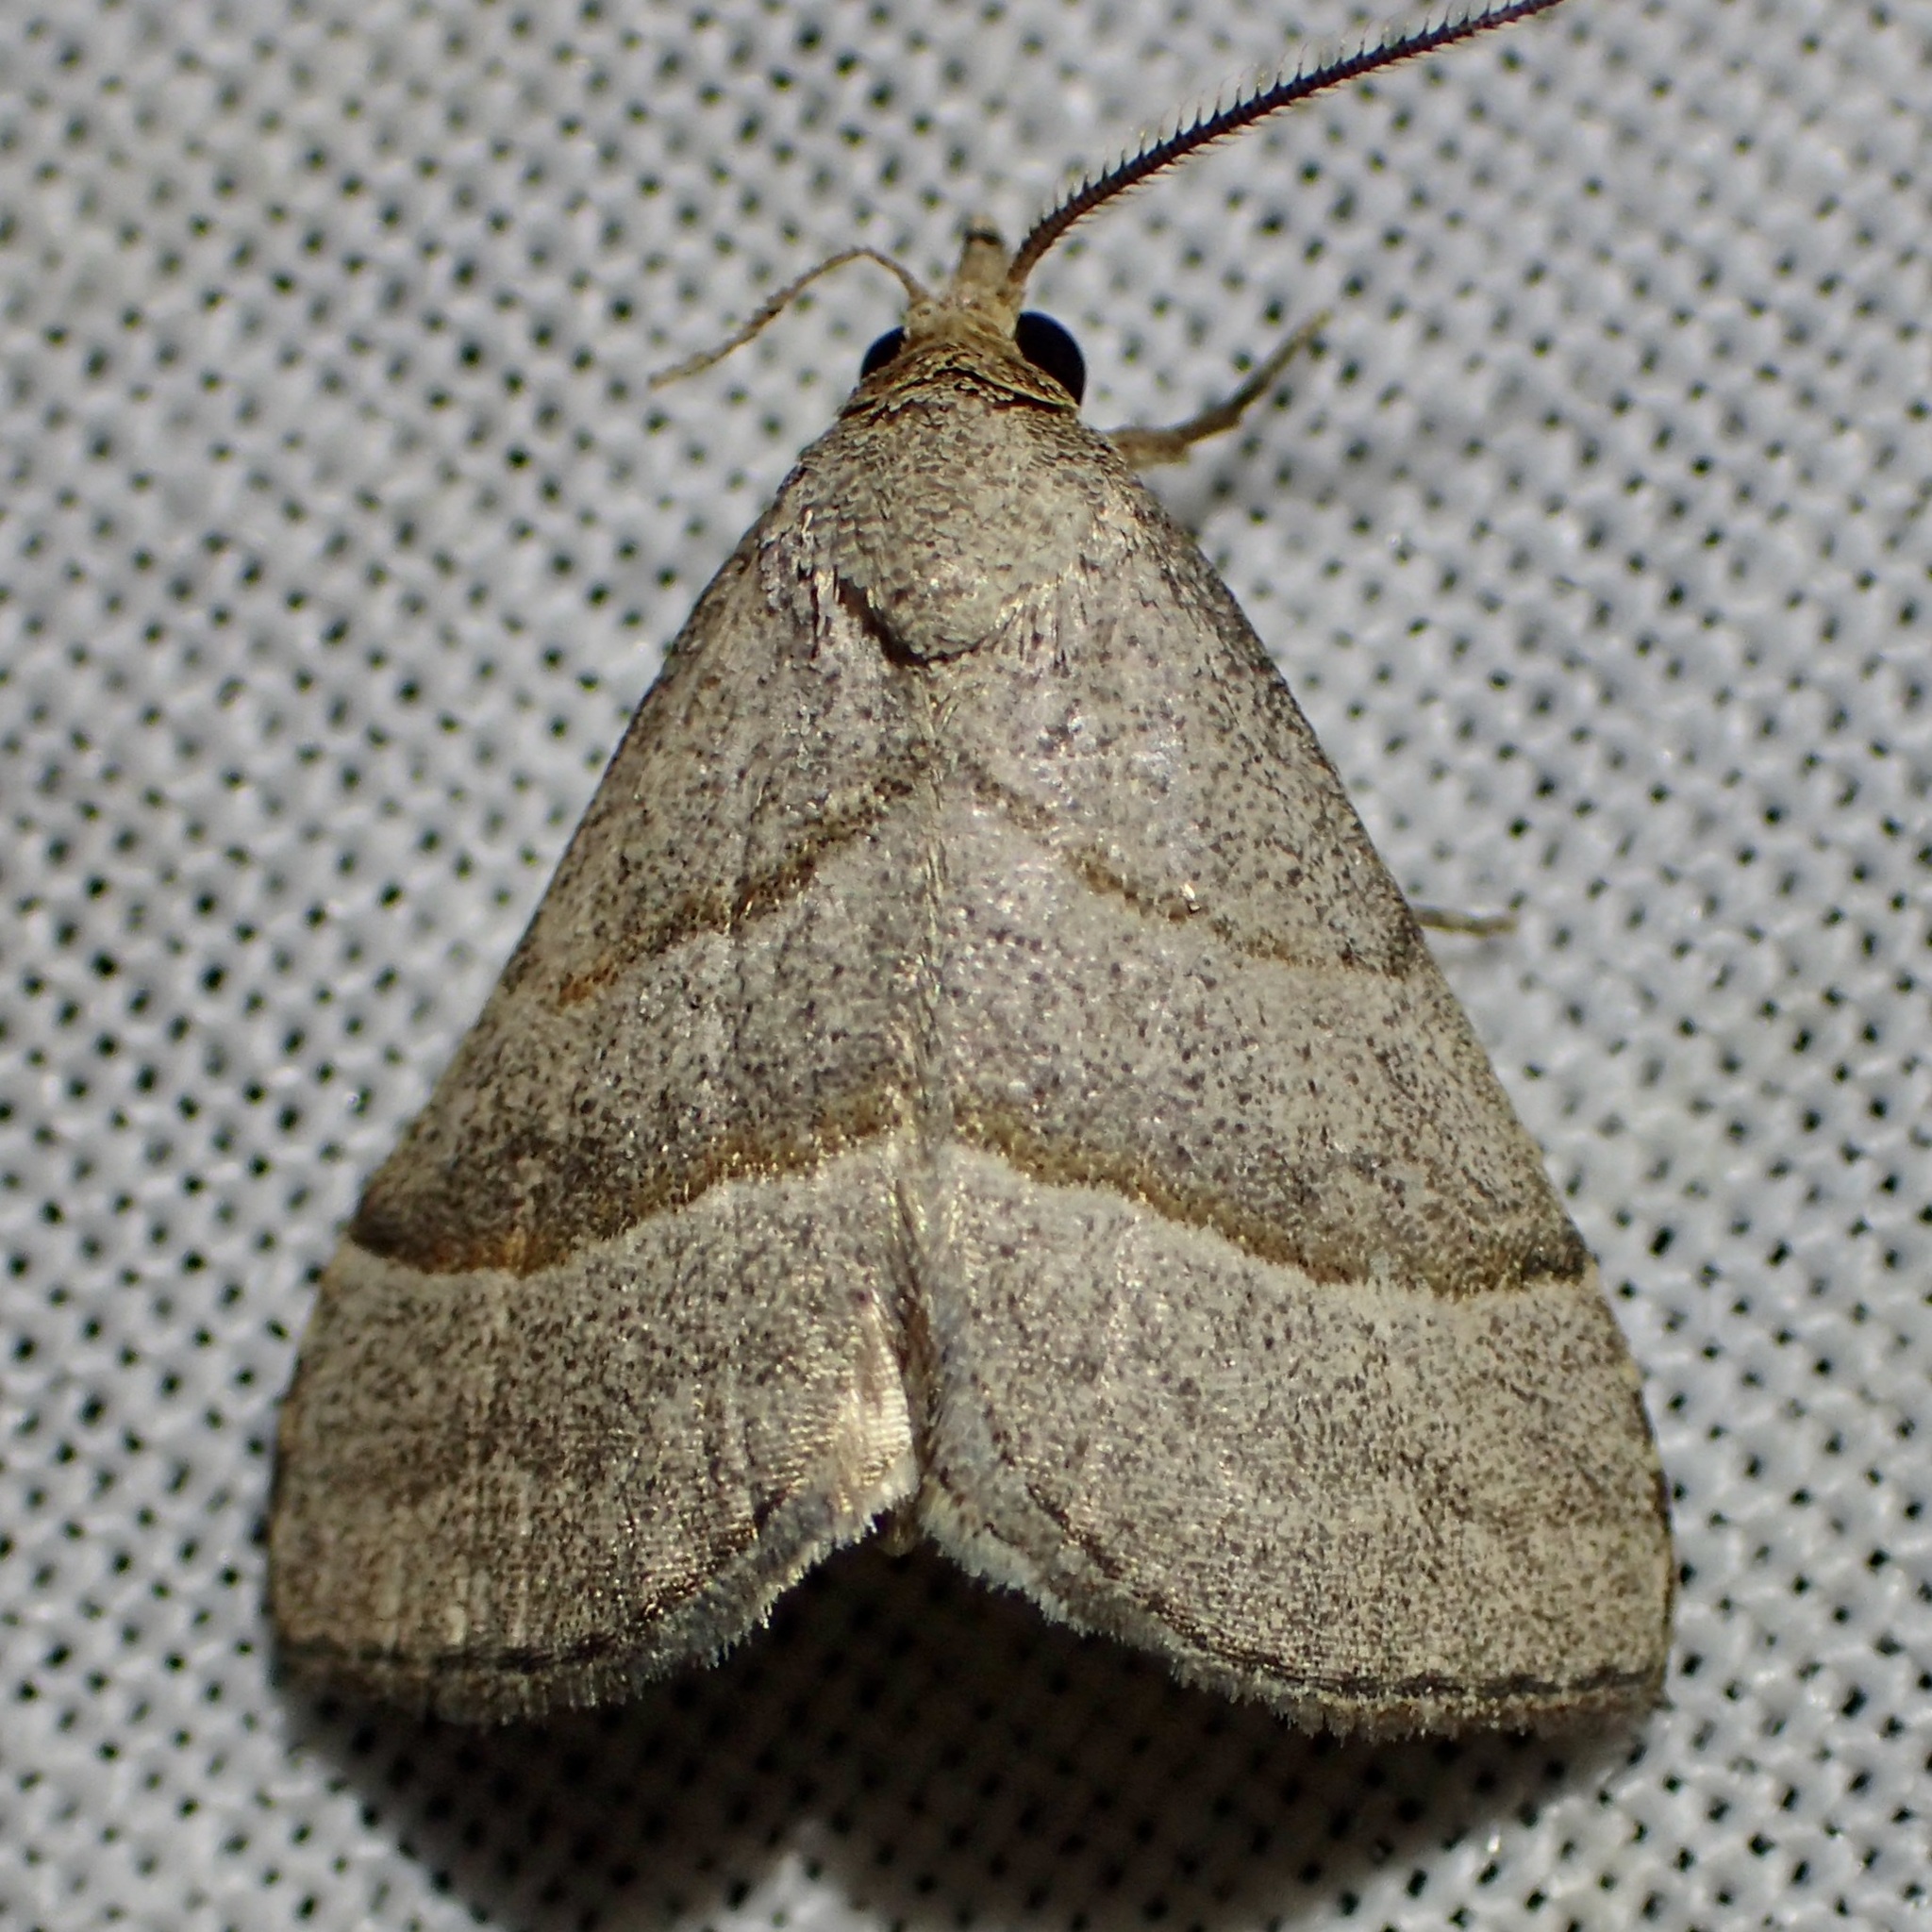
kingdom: Animalia
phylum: Arthropoda
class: Insecta
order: Lepidoptera
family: Erebidae
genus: Zelicodes
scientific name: Zelicodes linearis
